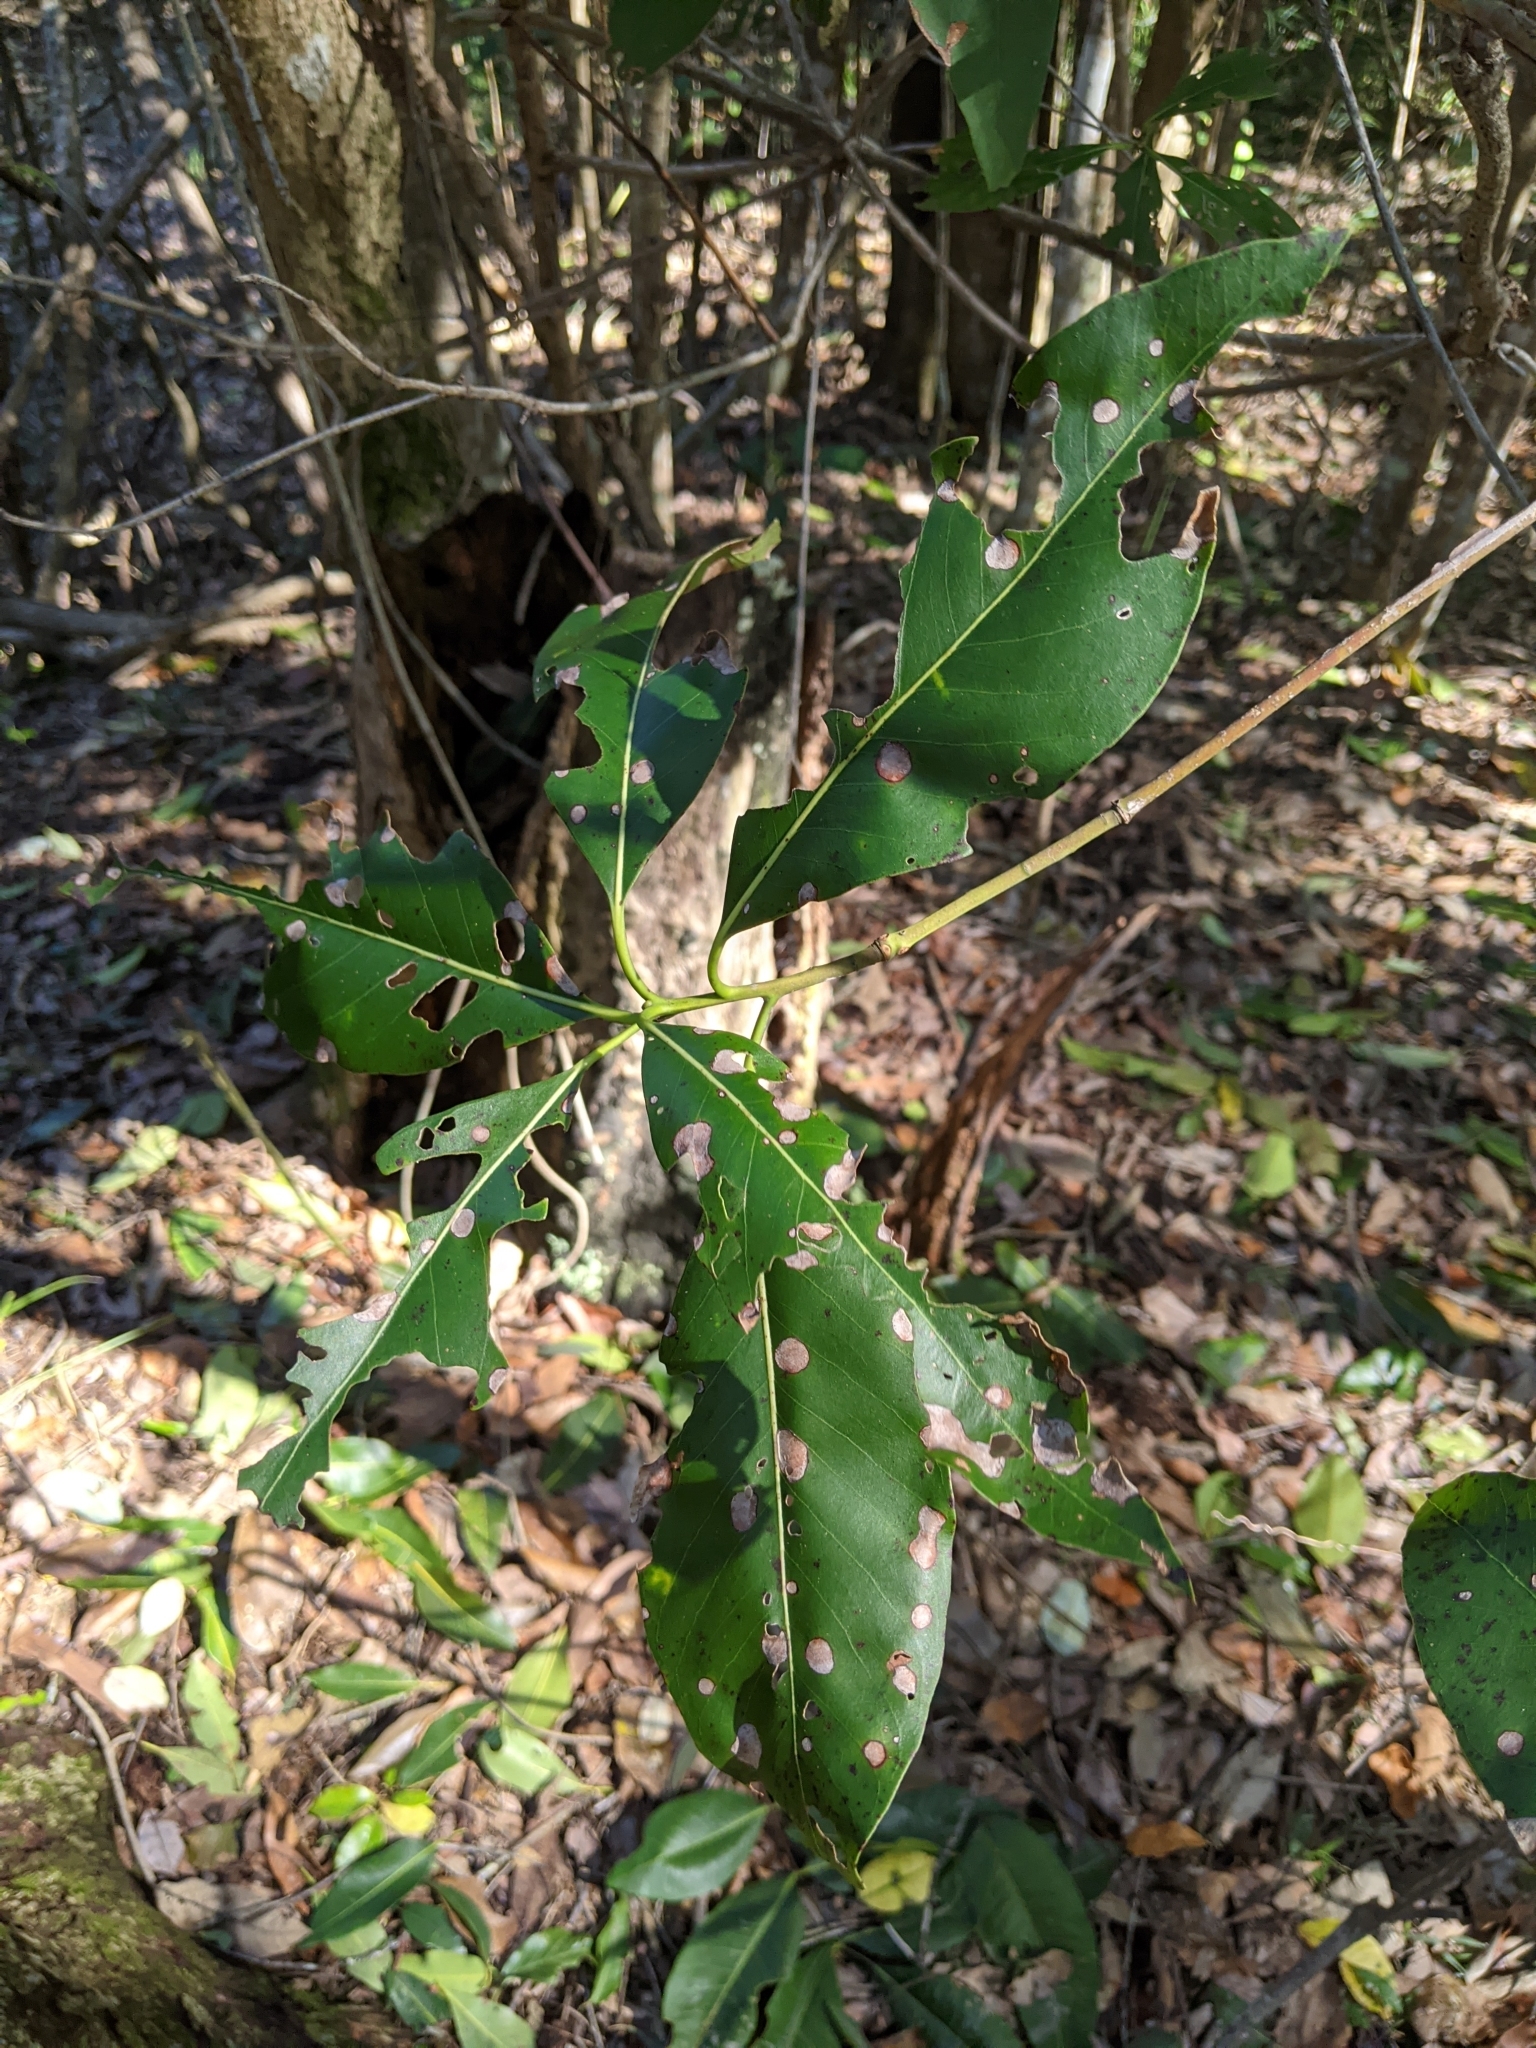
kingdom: Plantae
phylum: Tracheophyta
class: Magnoliopsida
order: Myrtales
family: Myrtaceae
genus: Lophostemon
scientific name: Lophostemon confertus
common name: Brisbane box
